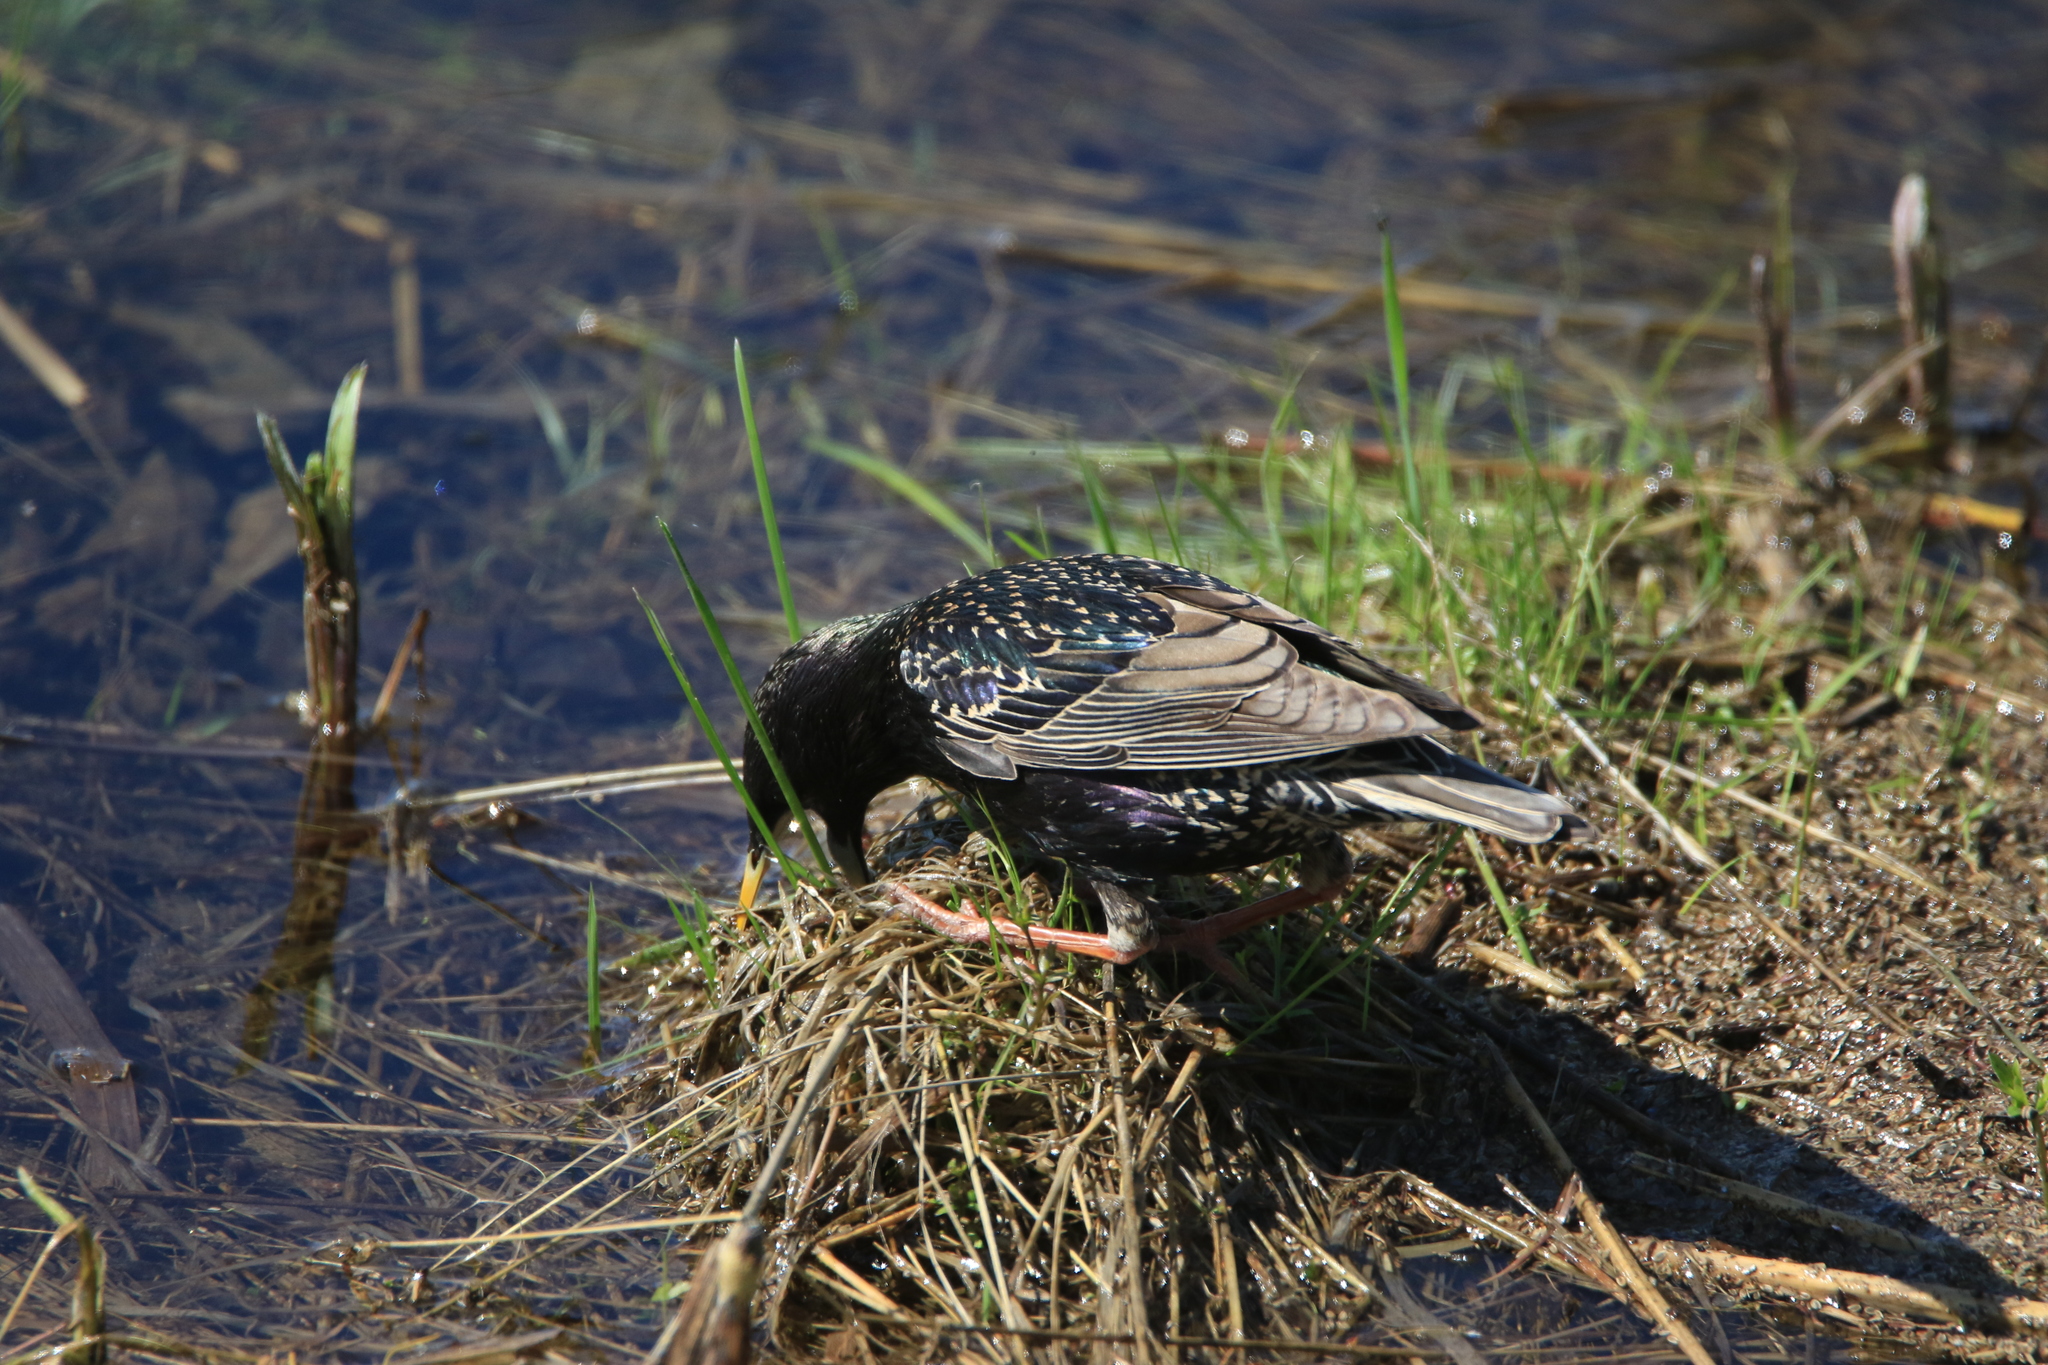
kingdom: Animalia
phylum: Chordata
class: Aves
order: Passeriformes
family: Sturnidae
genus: Sturnus
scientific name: Sturnus vulgaris
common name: Common starling
